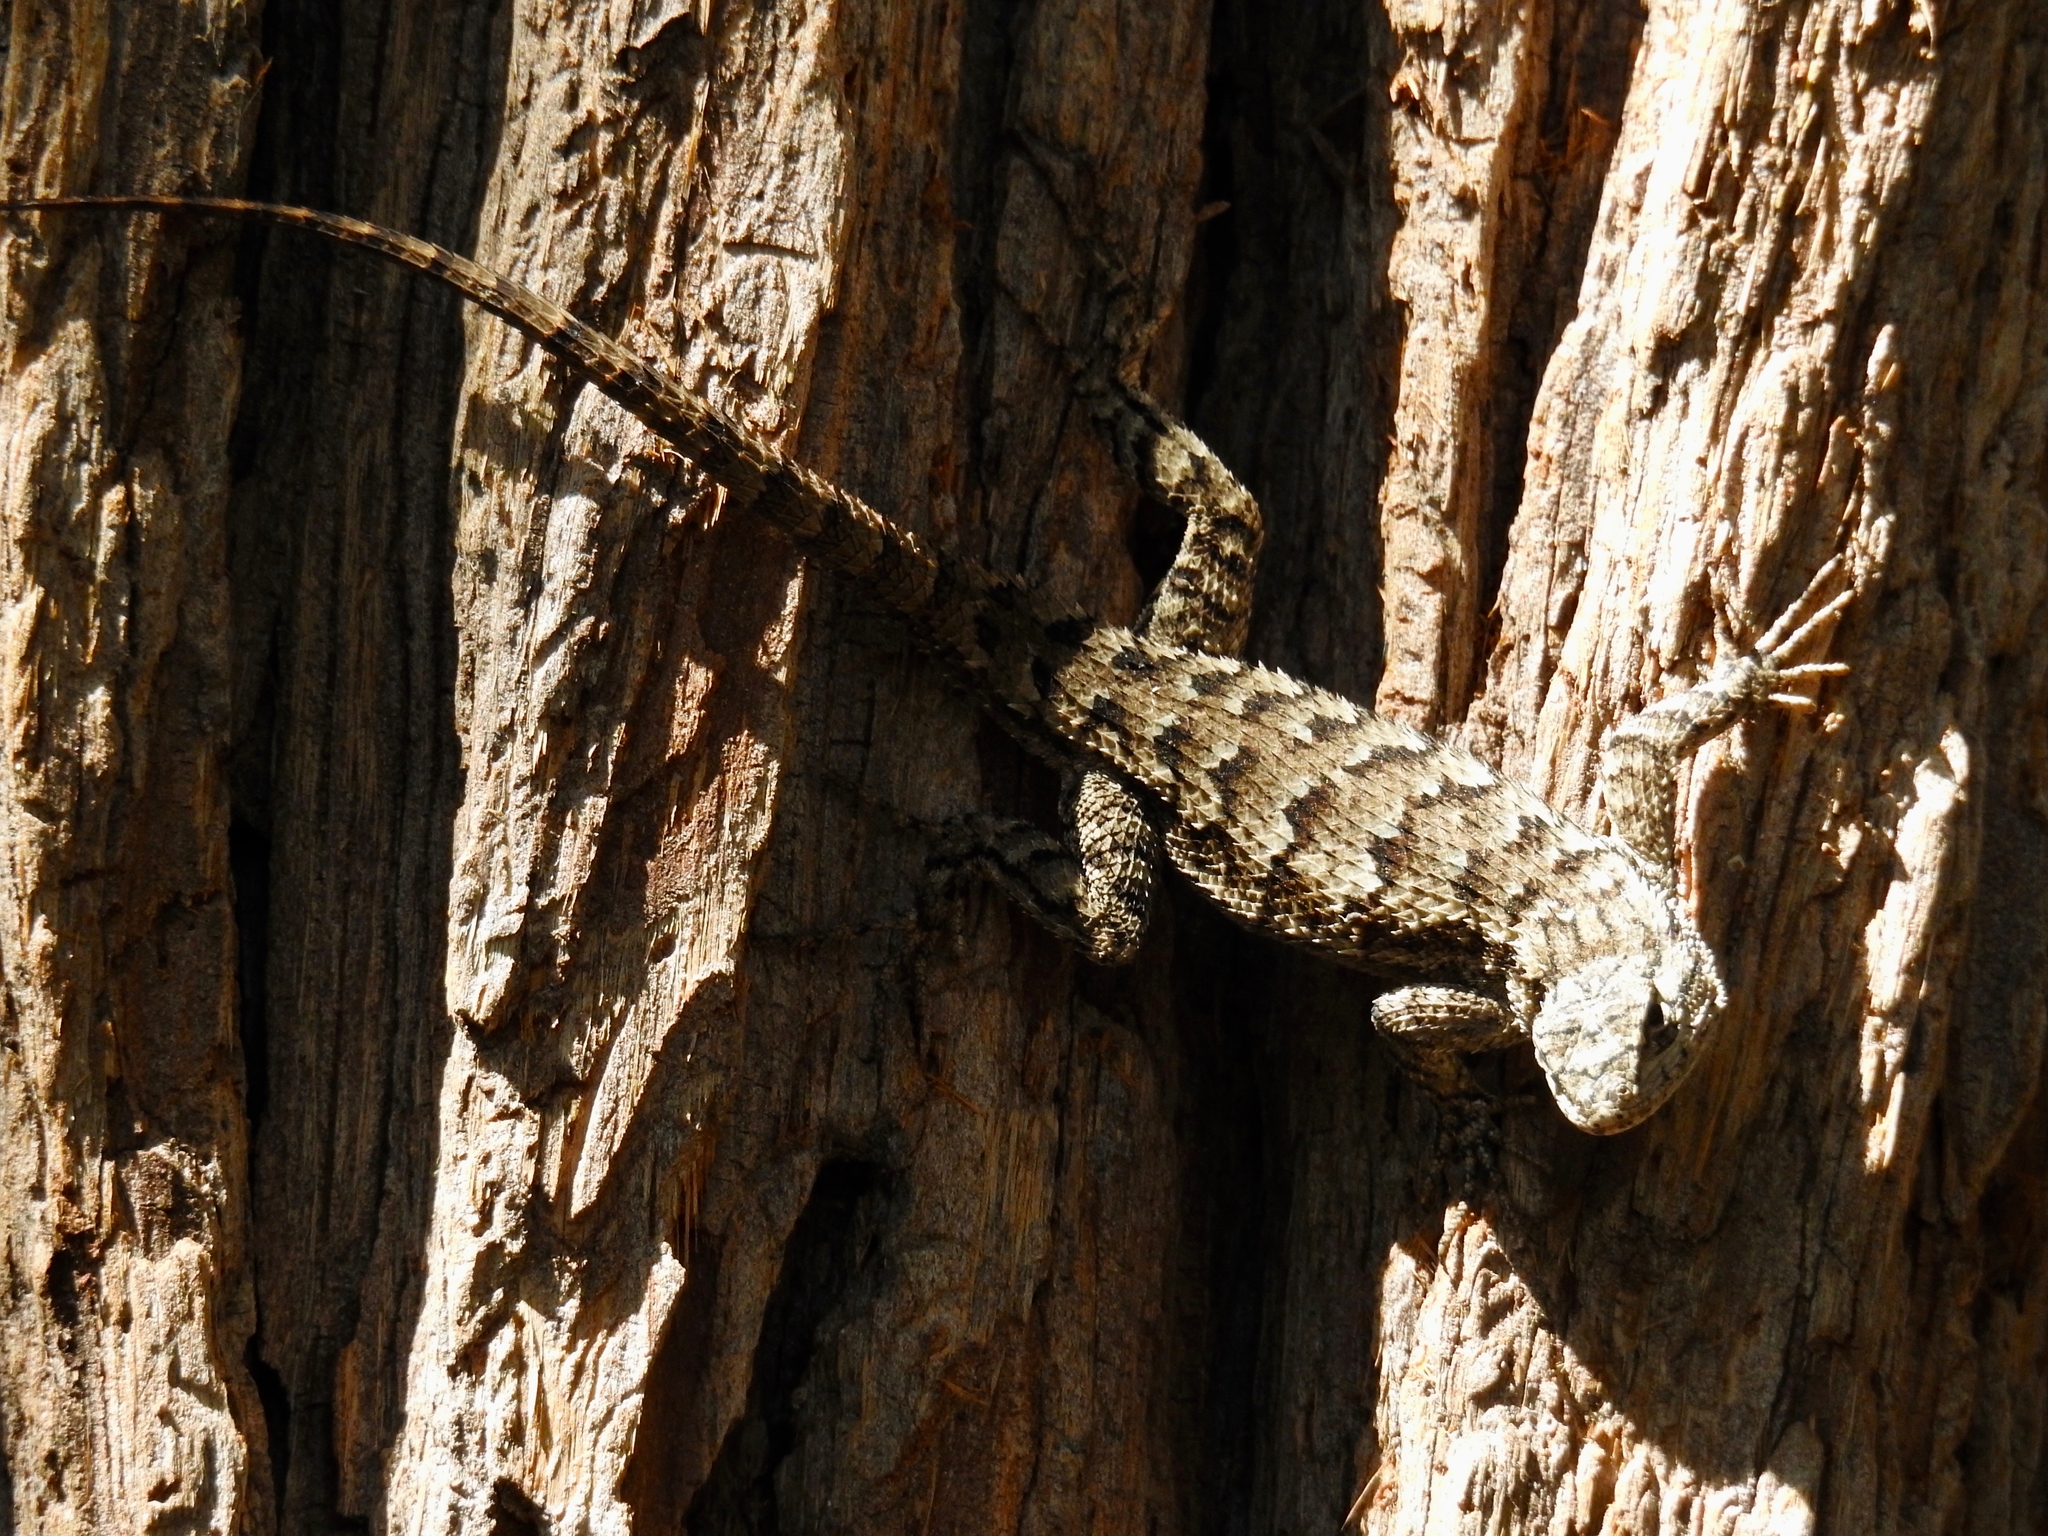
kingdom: Animalia
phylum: Chordata
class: Squamata
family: Phrynosomatidae
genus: Sceloporus
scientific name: Sceloporus occidentalis
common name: Western fence lizard
